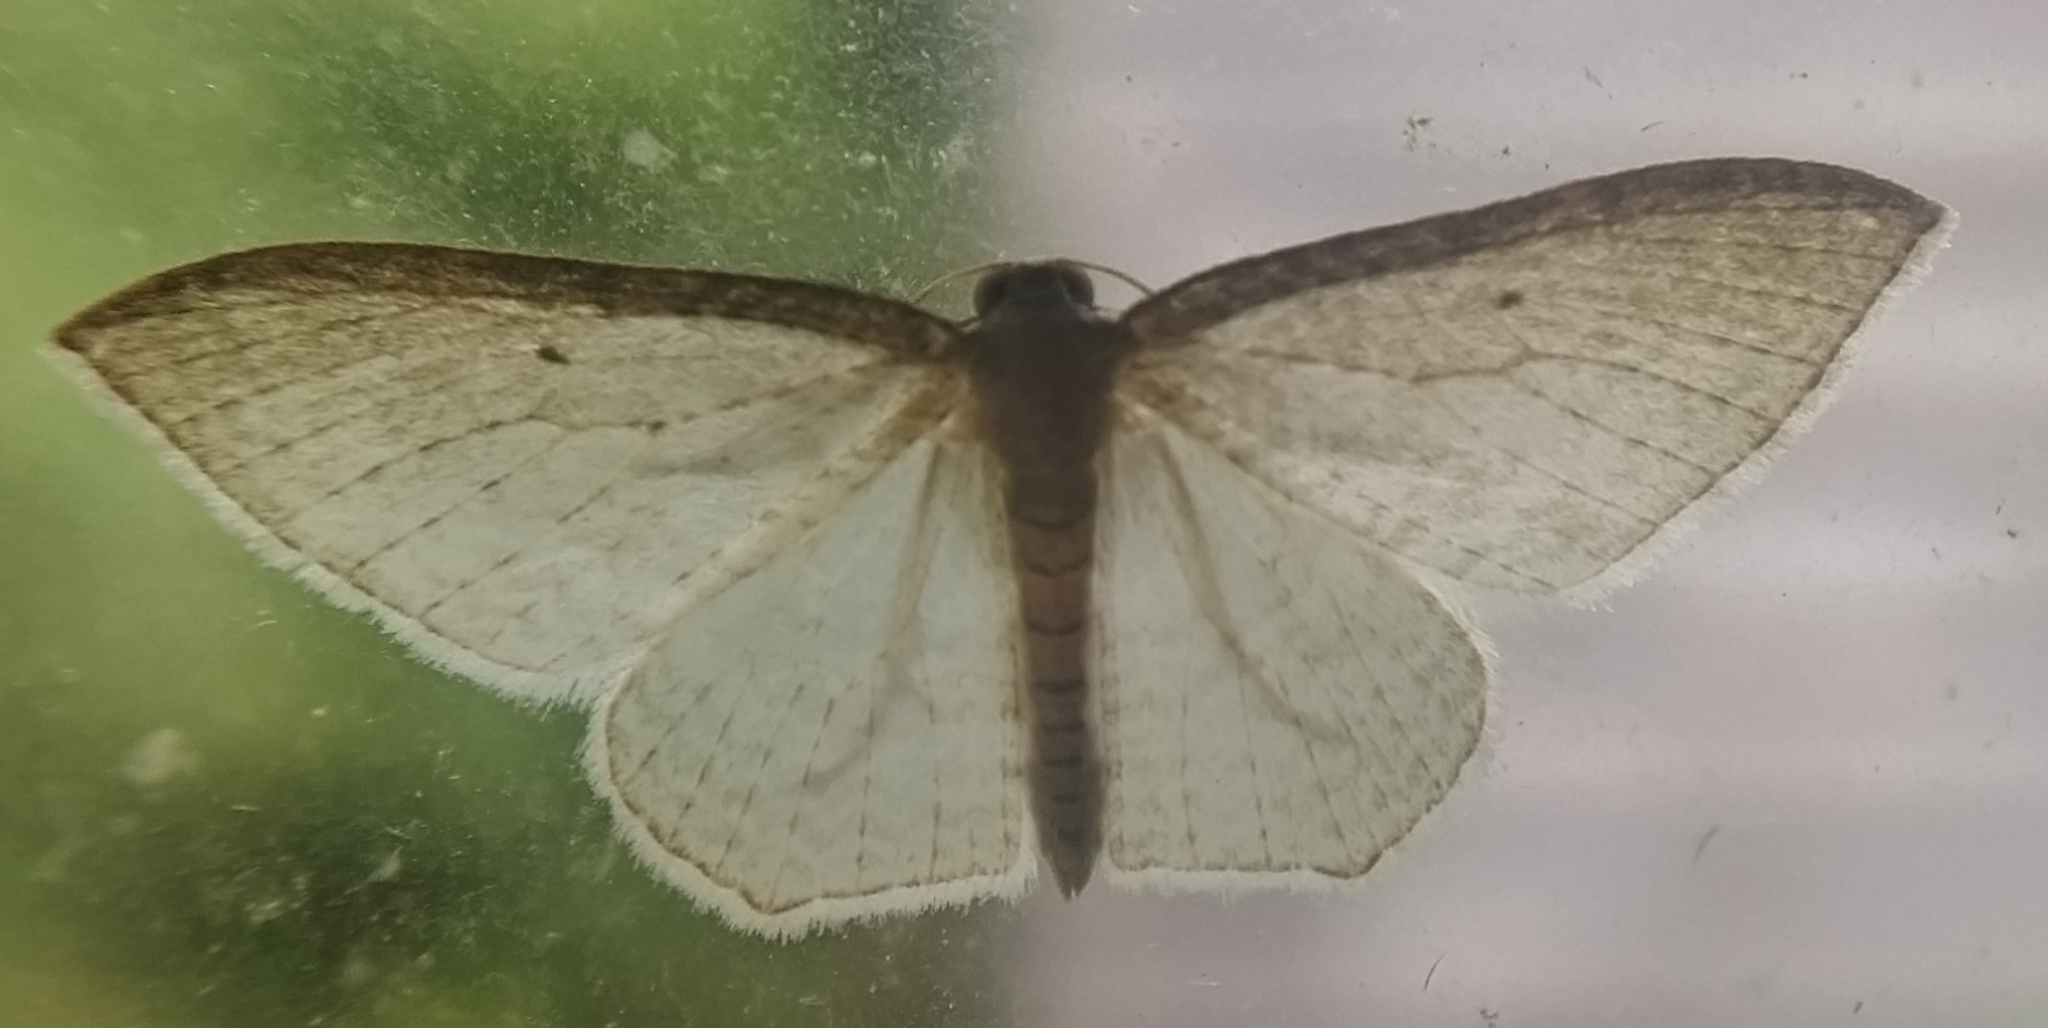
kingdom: Animalia
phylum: Arthropoda
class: Insecta
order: Lepidoptera
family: Geometridae
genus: Poecilasthena
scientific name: Poecilasthena pulchraria
